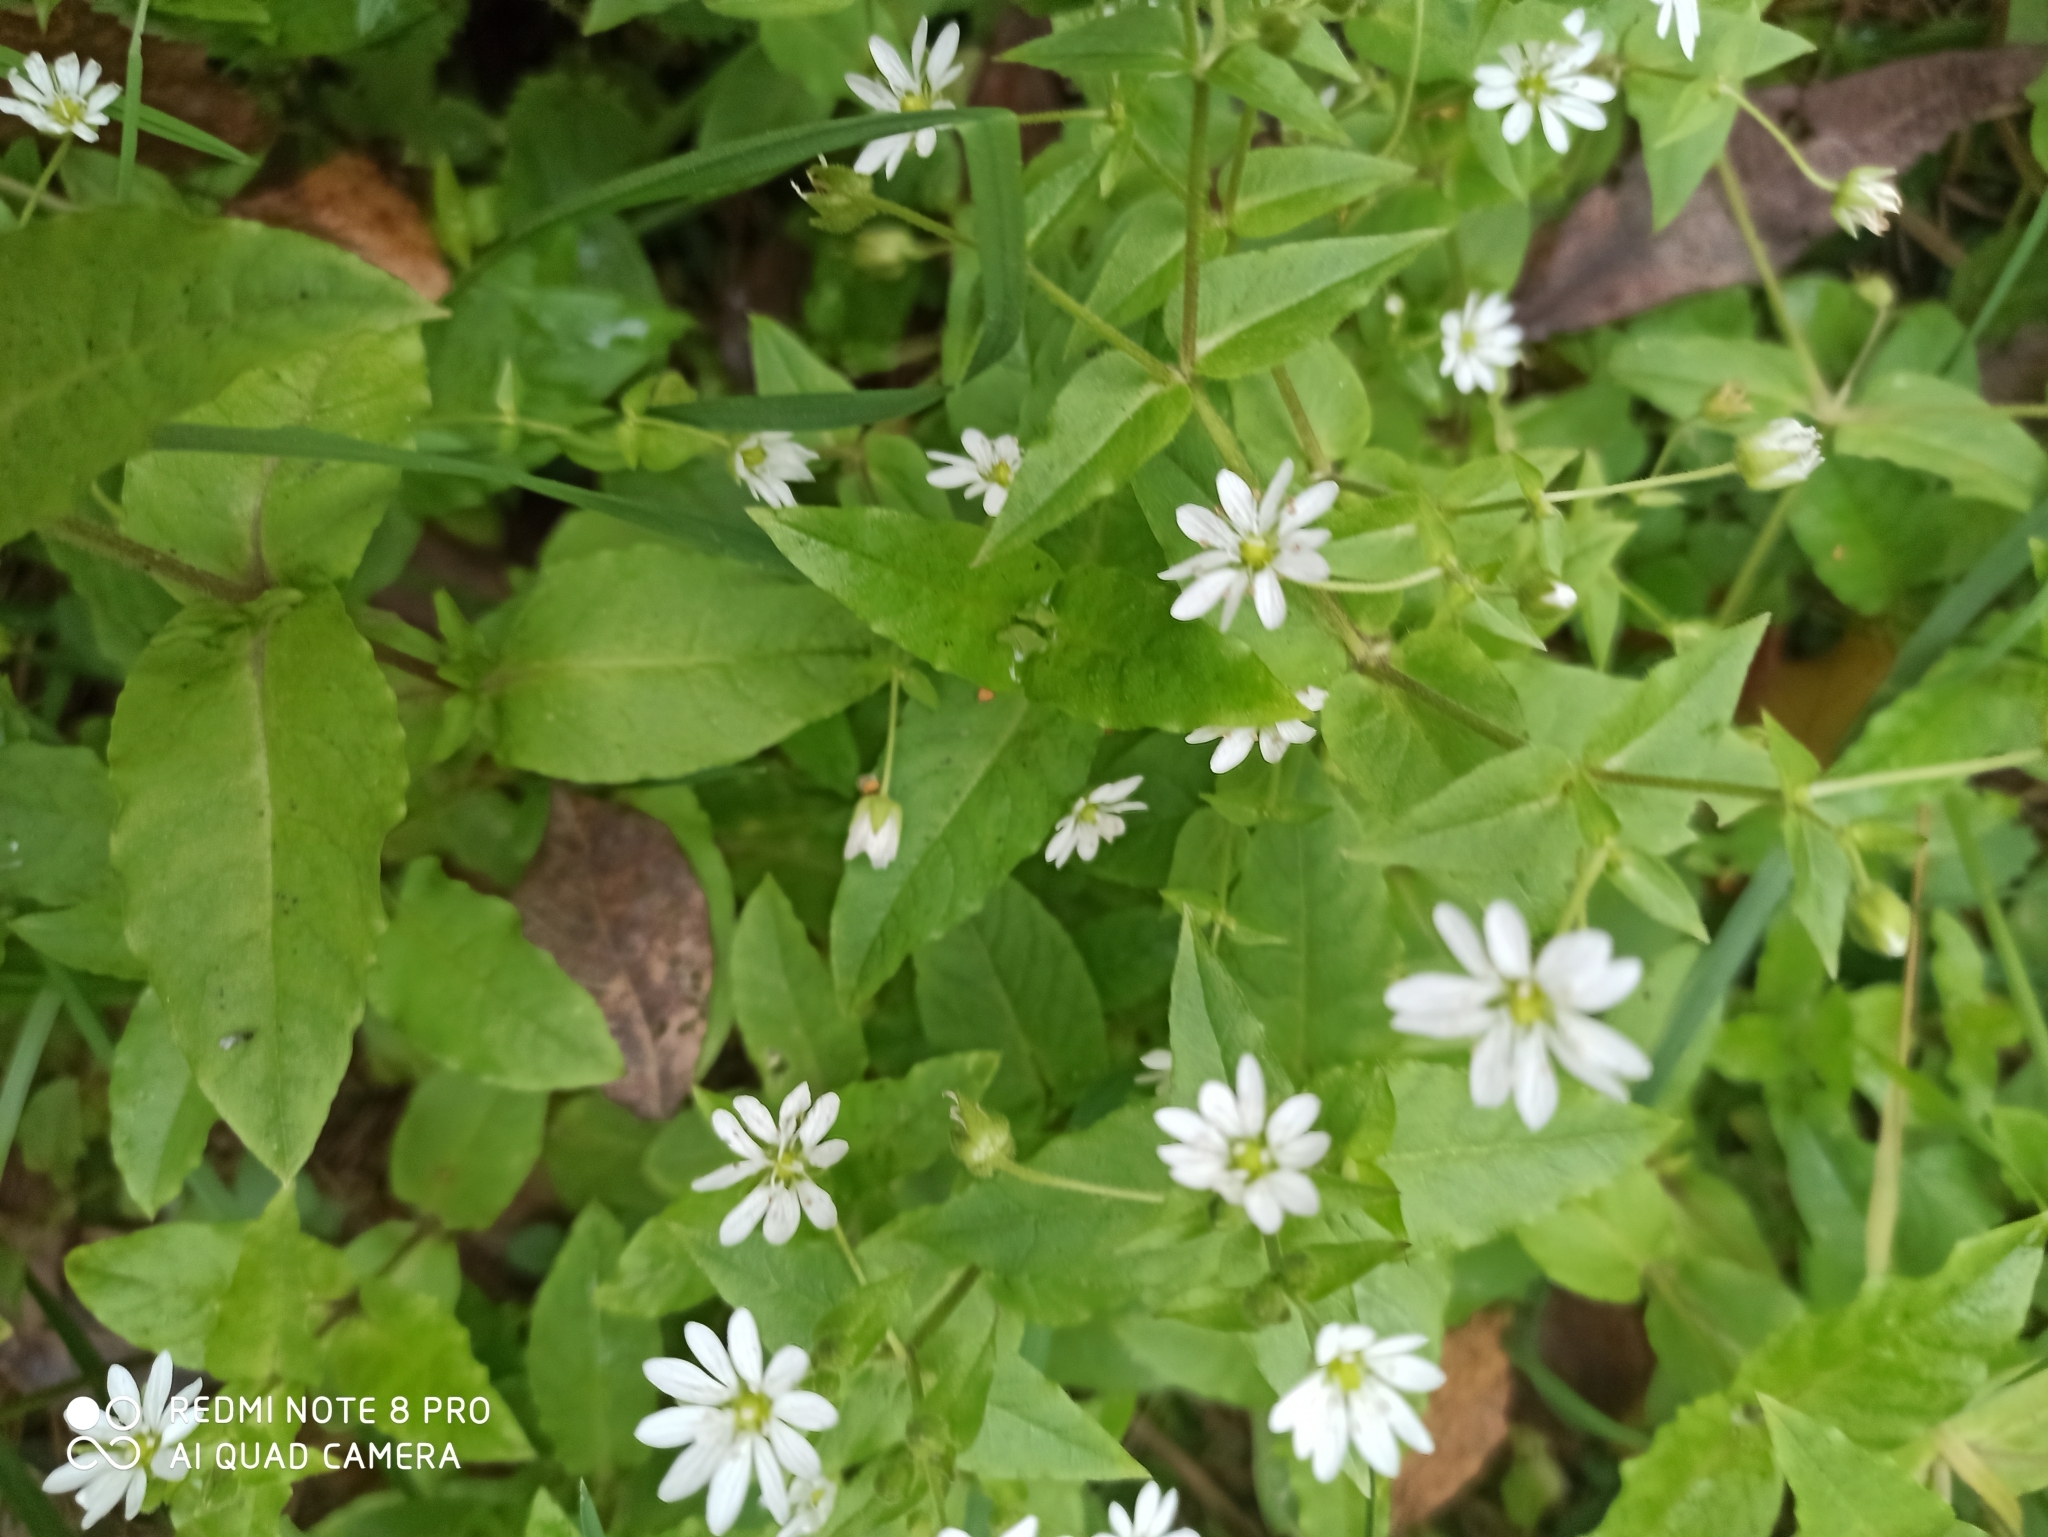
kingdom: Plantae
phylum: Tracheophyta
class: Magnoliopsida
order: Caryophyllales
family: Caryophyllaceae
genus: Stellaria
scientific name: Stellaria aquatica
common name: Water chickweed
